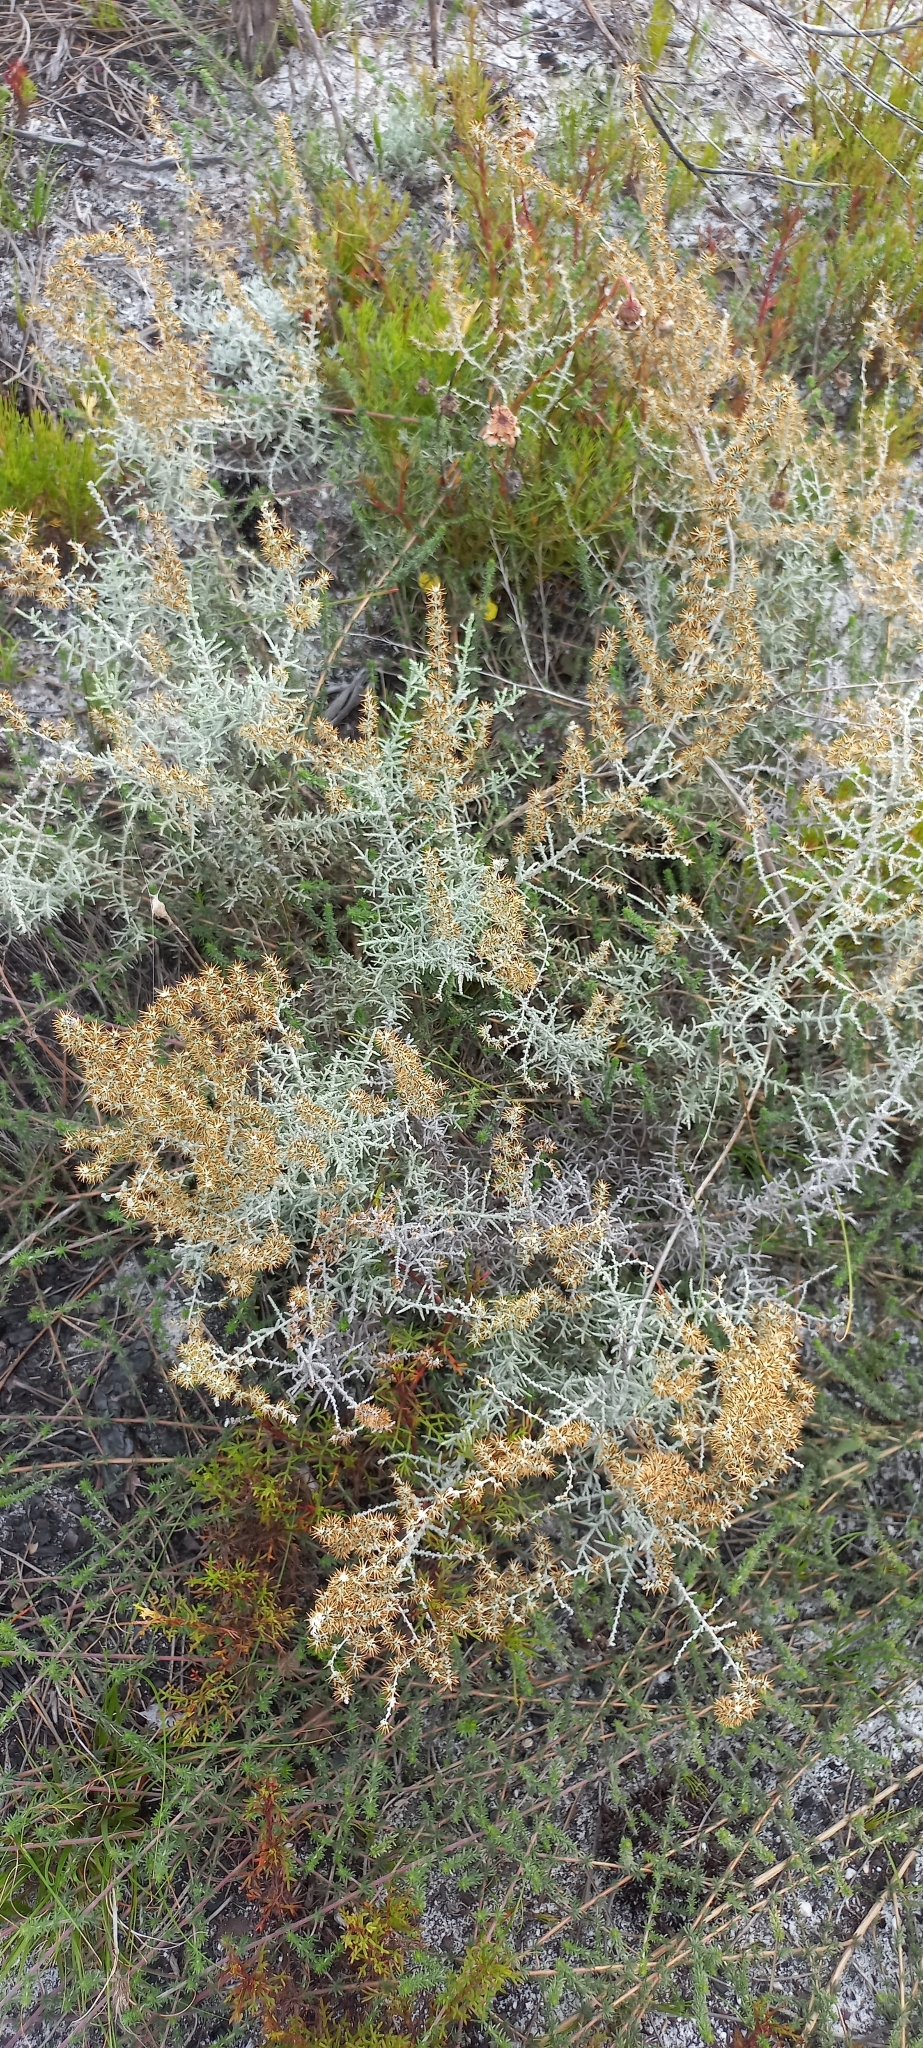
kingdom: Plantae
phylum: Tracheophyta
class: Magnoliopsida
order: Asterales
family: Asteraceae
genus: Seriphium
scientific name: Seriphium plumosum
